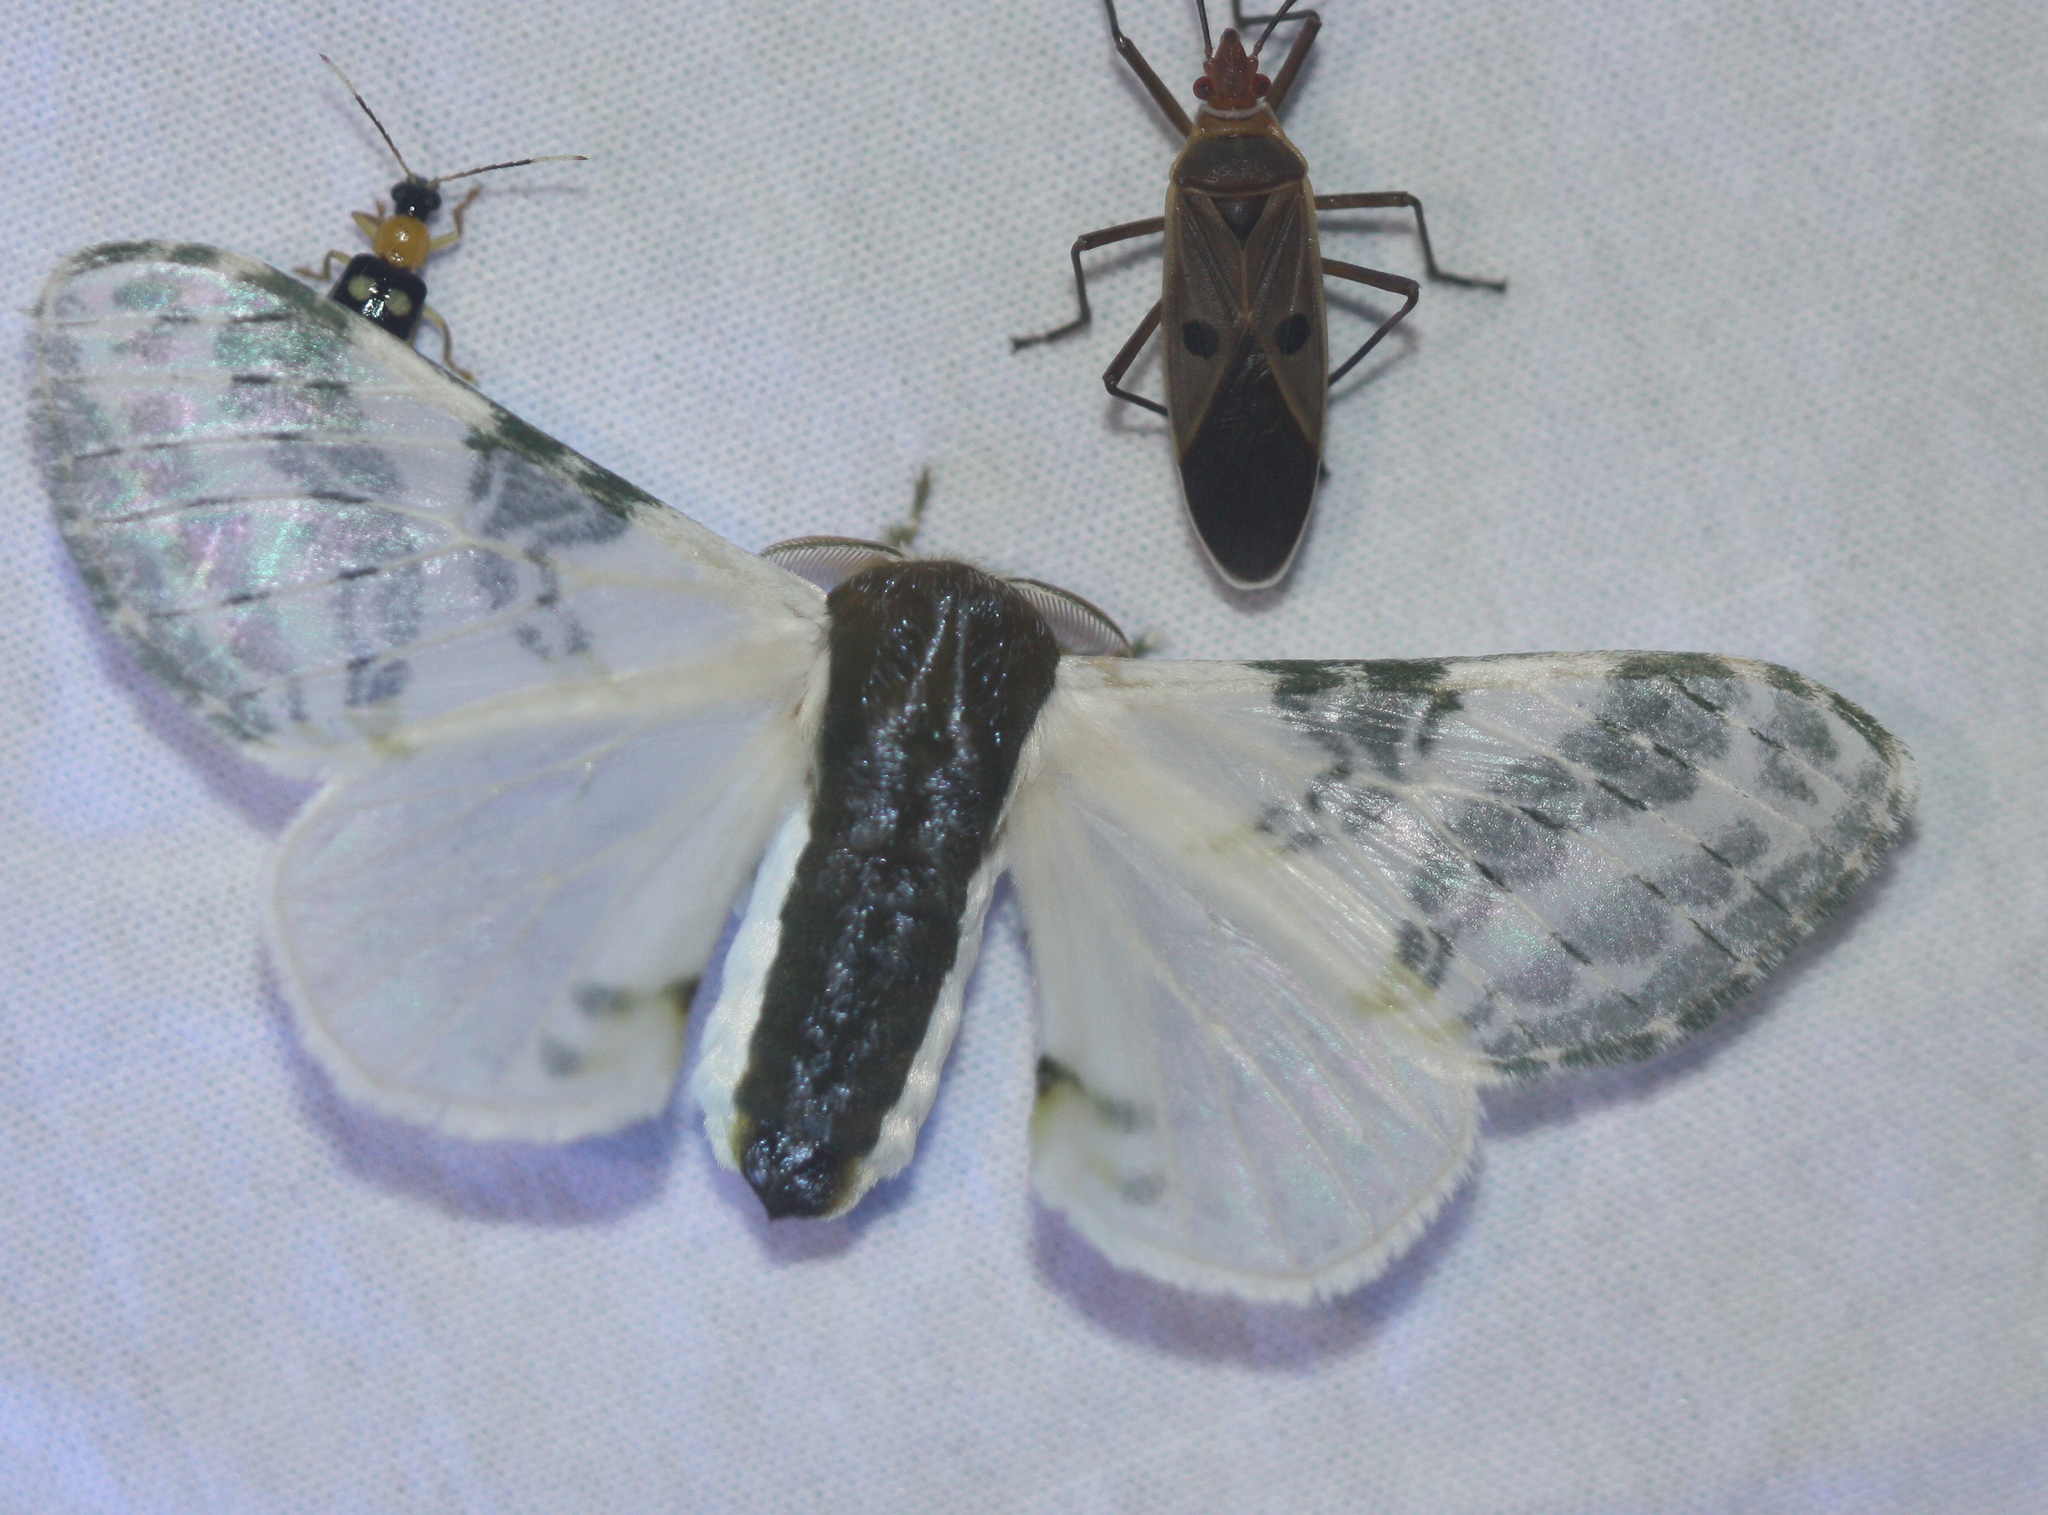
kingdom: Animalia
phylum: Arthropoda
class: Insecta
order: Lepidoptera
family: Bombycidae
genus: Colla
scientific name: Colla rhodope
